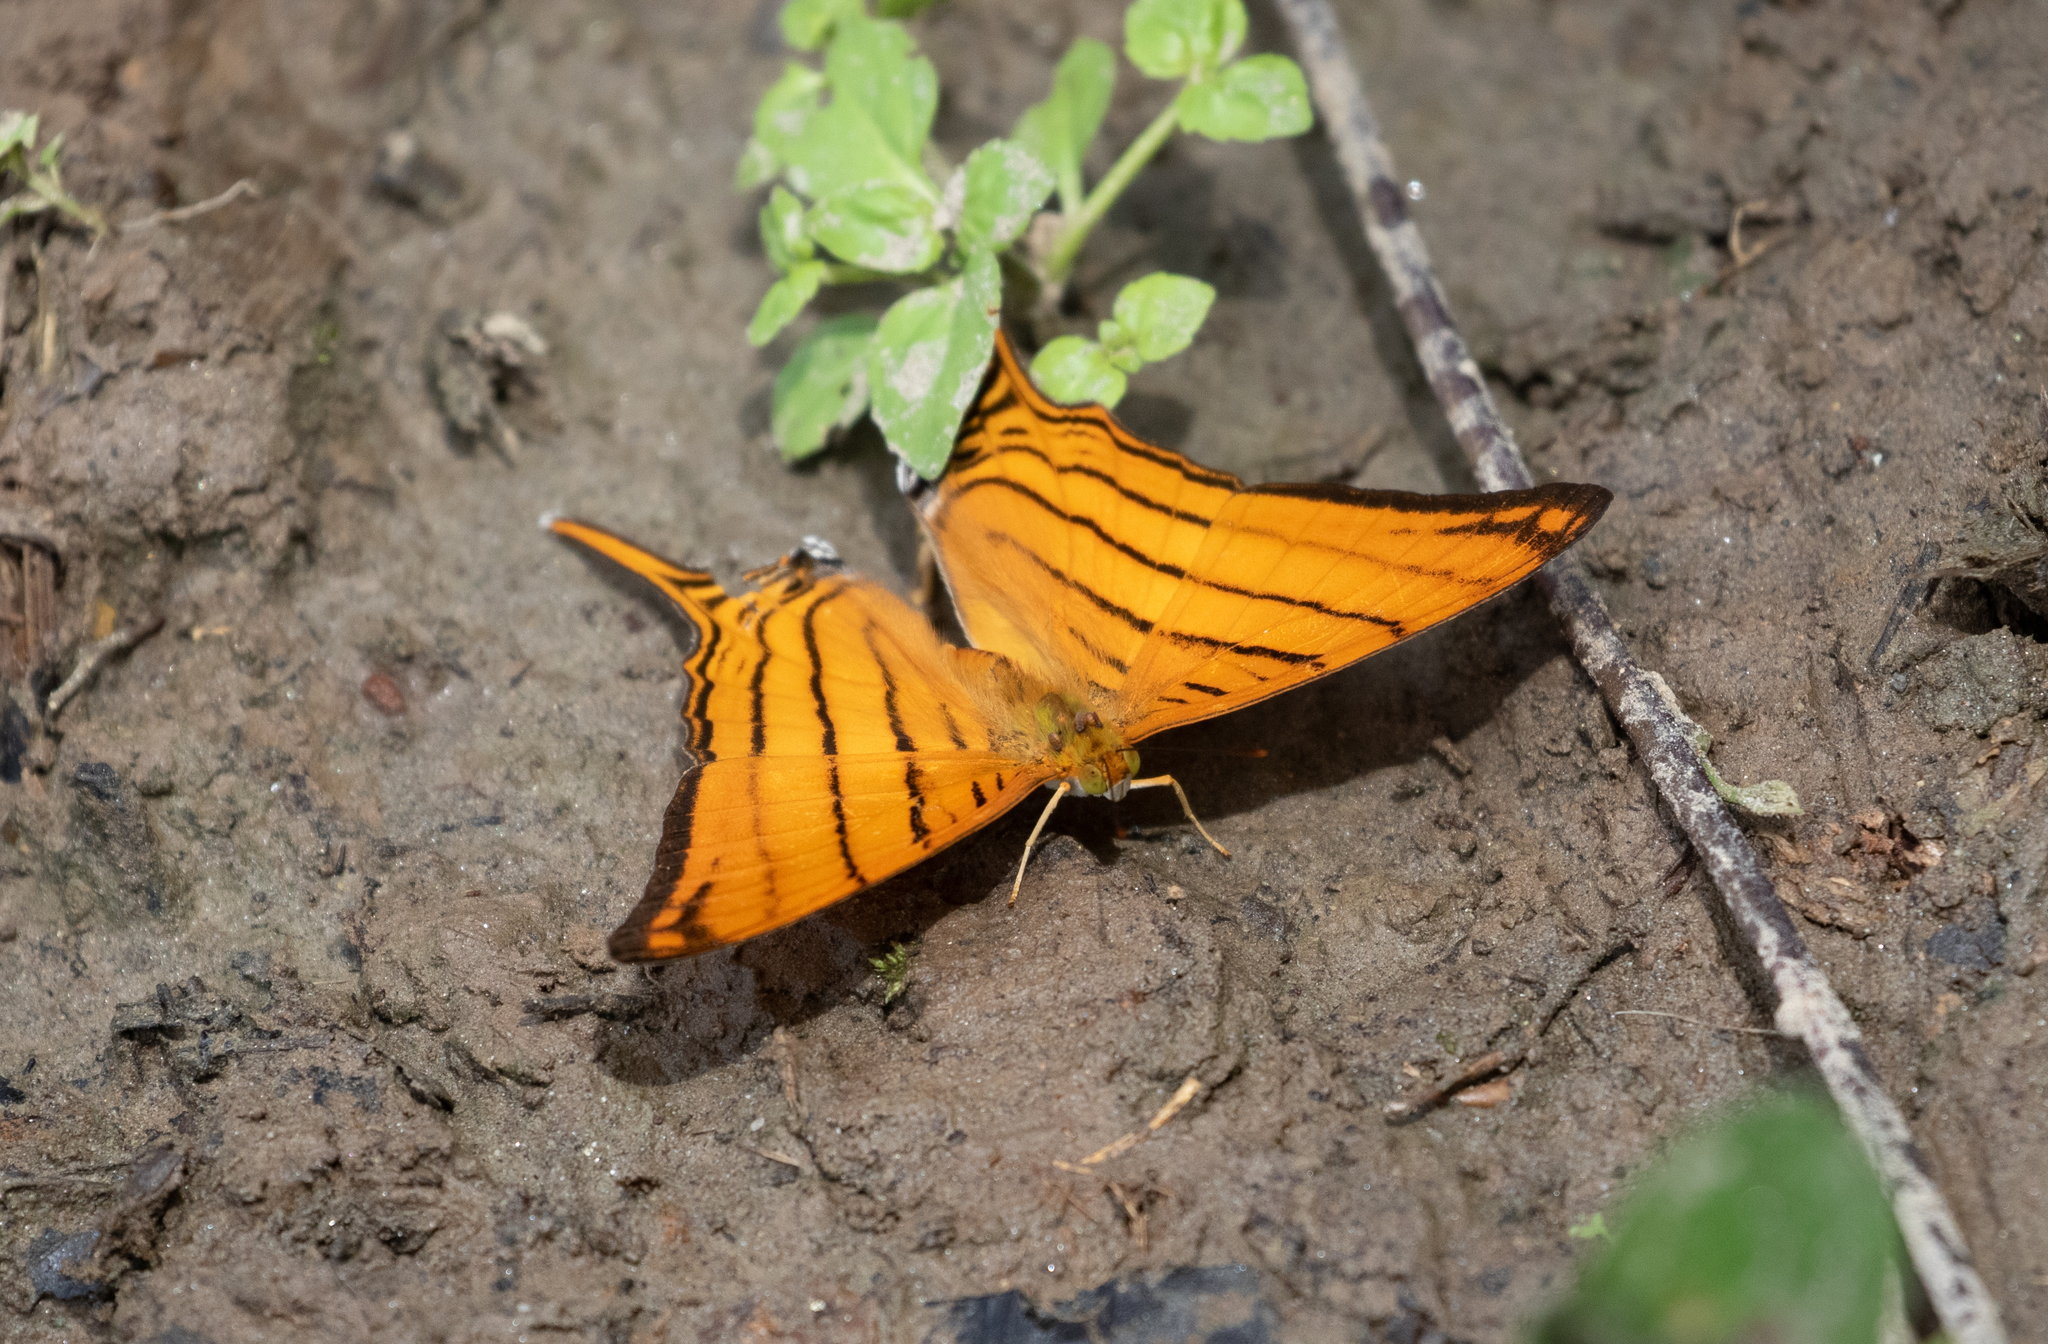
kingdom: Animalia
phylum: Arthropoda
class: Insecta
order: Lepidoptera
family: Nymphalidae
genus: Marpesia
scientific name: Marpesia berania
